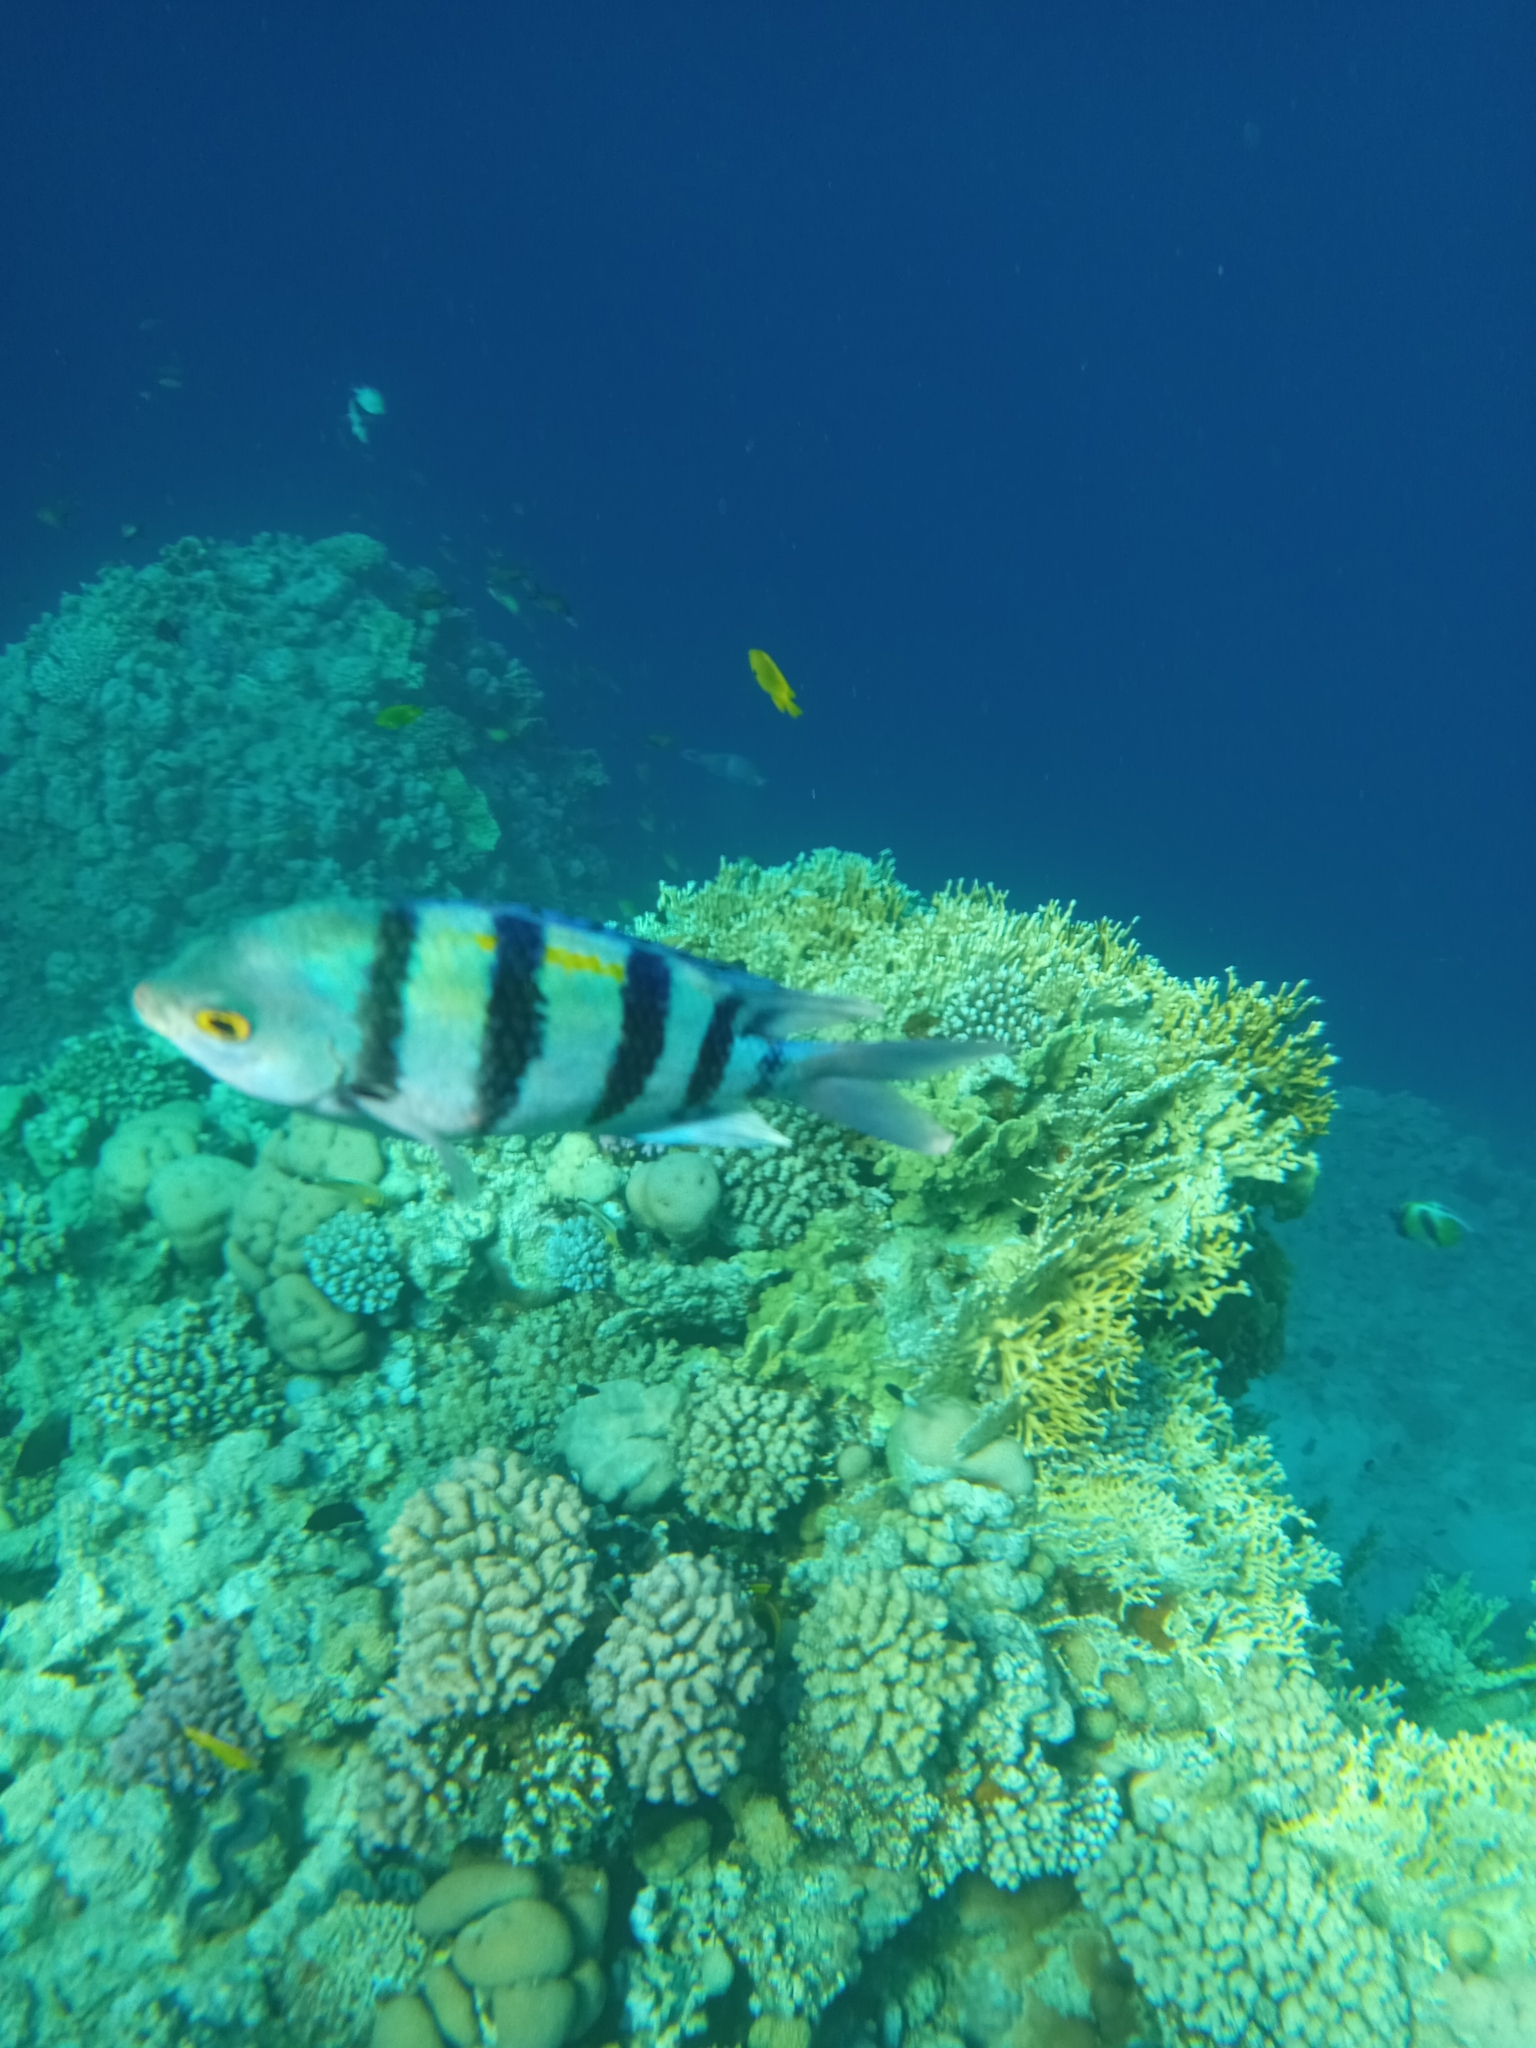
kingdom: Animalia
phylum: Chordata
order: Perciformes
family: Pomacentridae
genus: Abudefduf
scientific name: Abudefduf vaigiensis
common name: Indo-pacific sergeant
